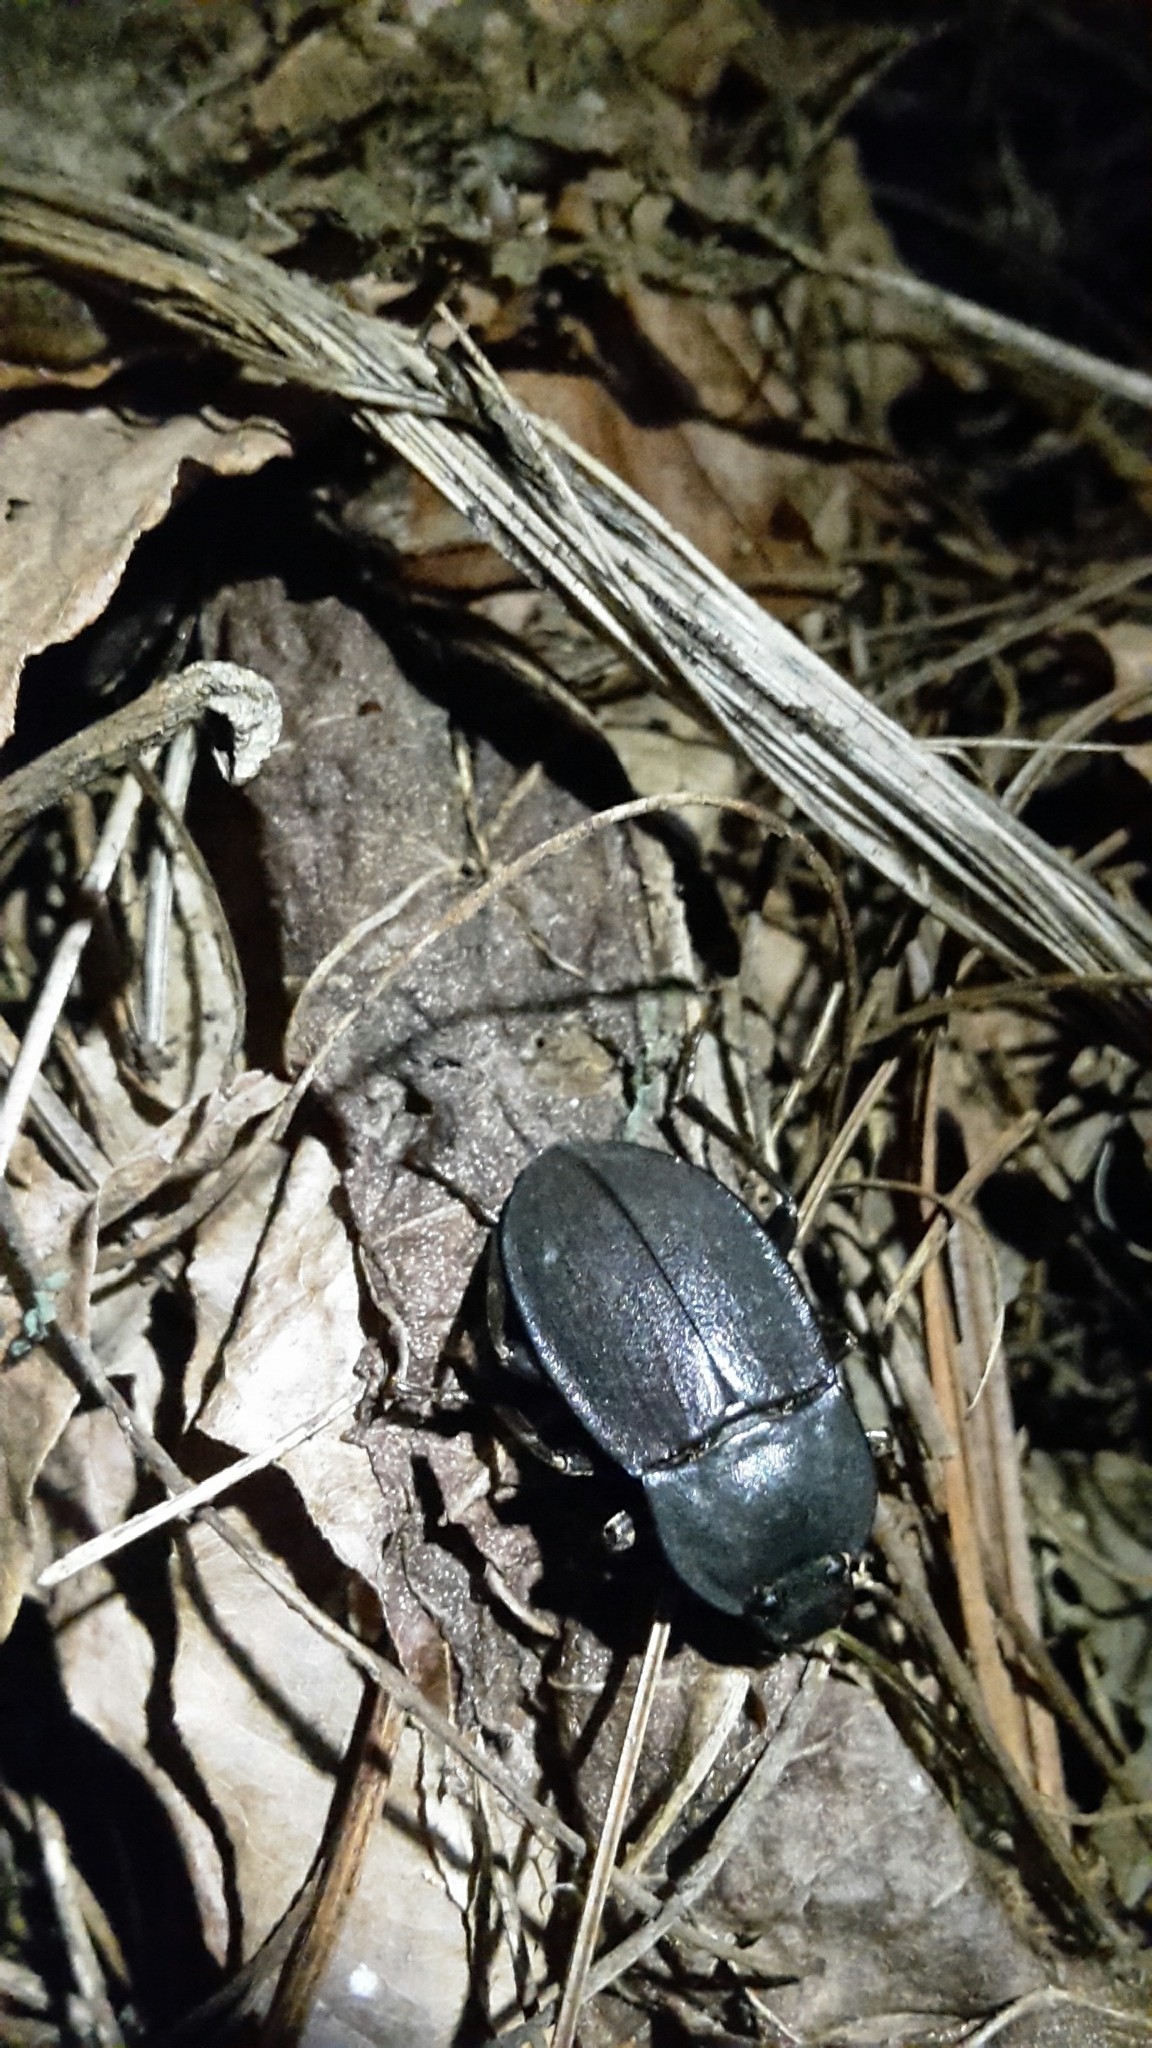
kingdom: Animalia
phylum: Arthropoda
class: Insecta
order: Coleoptera
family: Tenebrionidae
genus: Mimopeus
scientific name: Mimopeus
